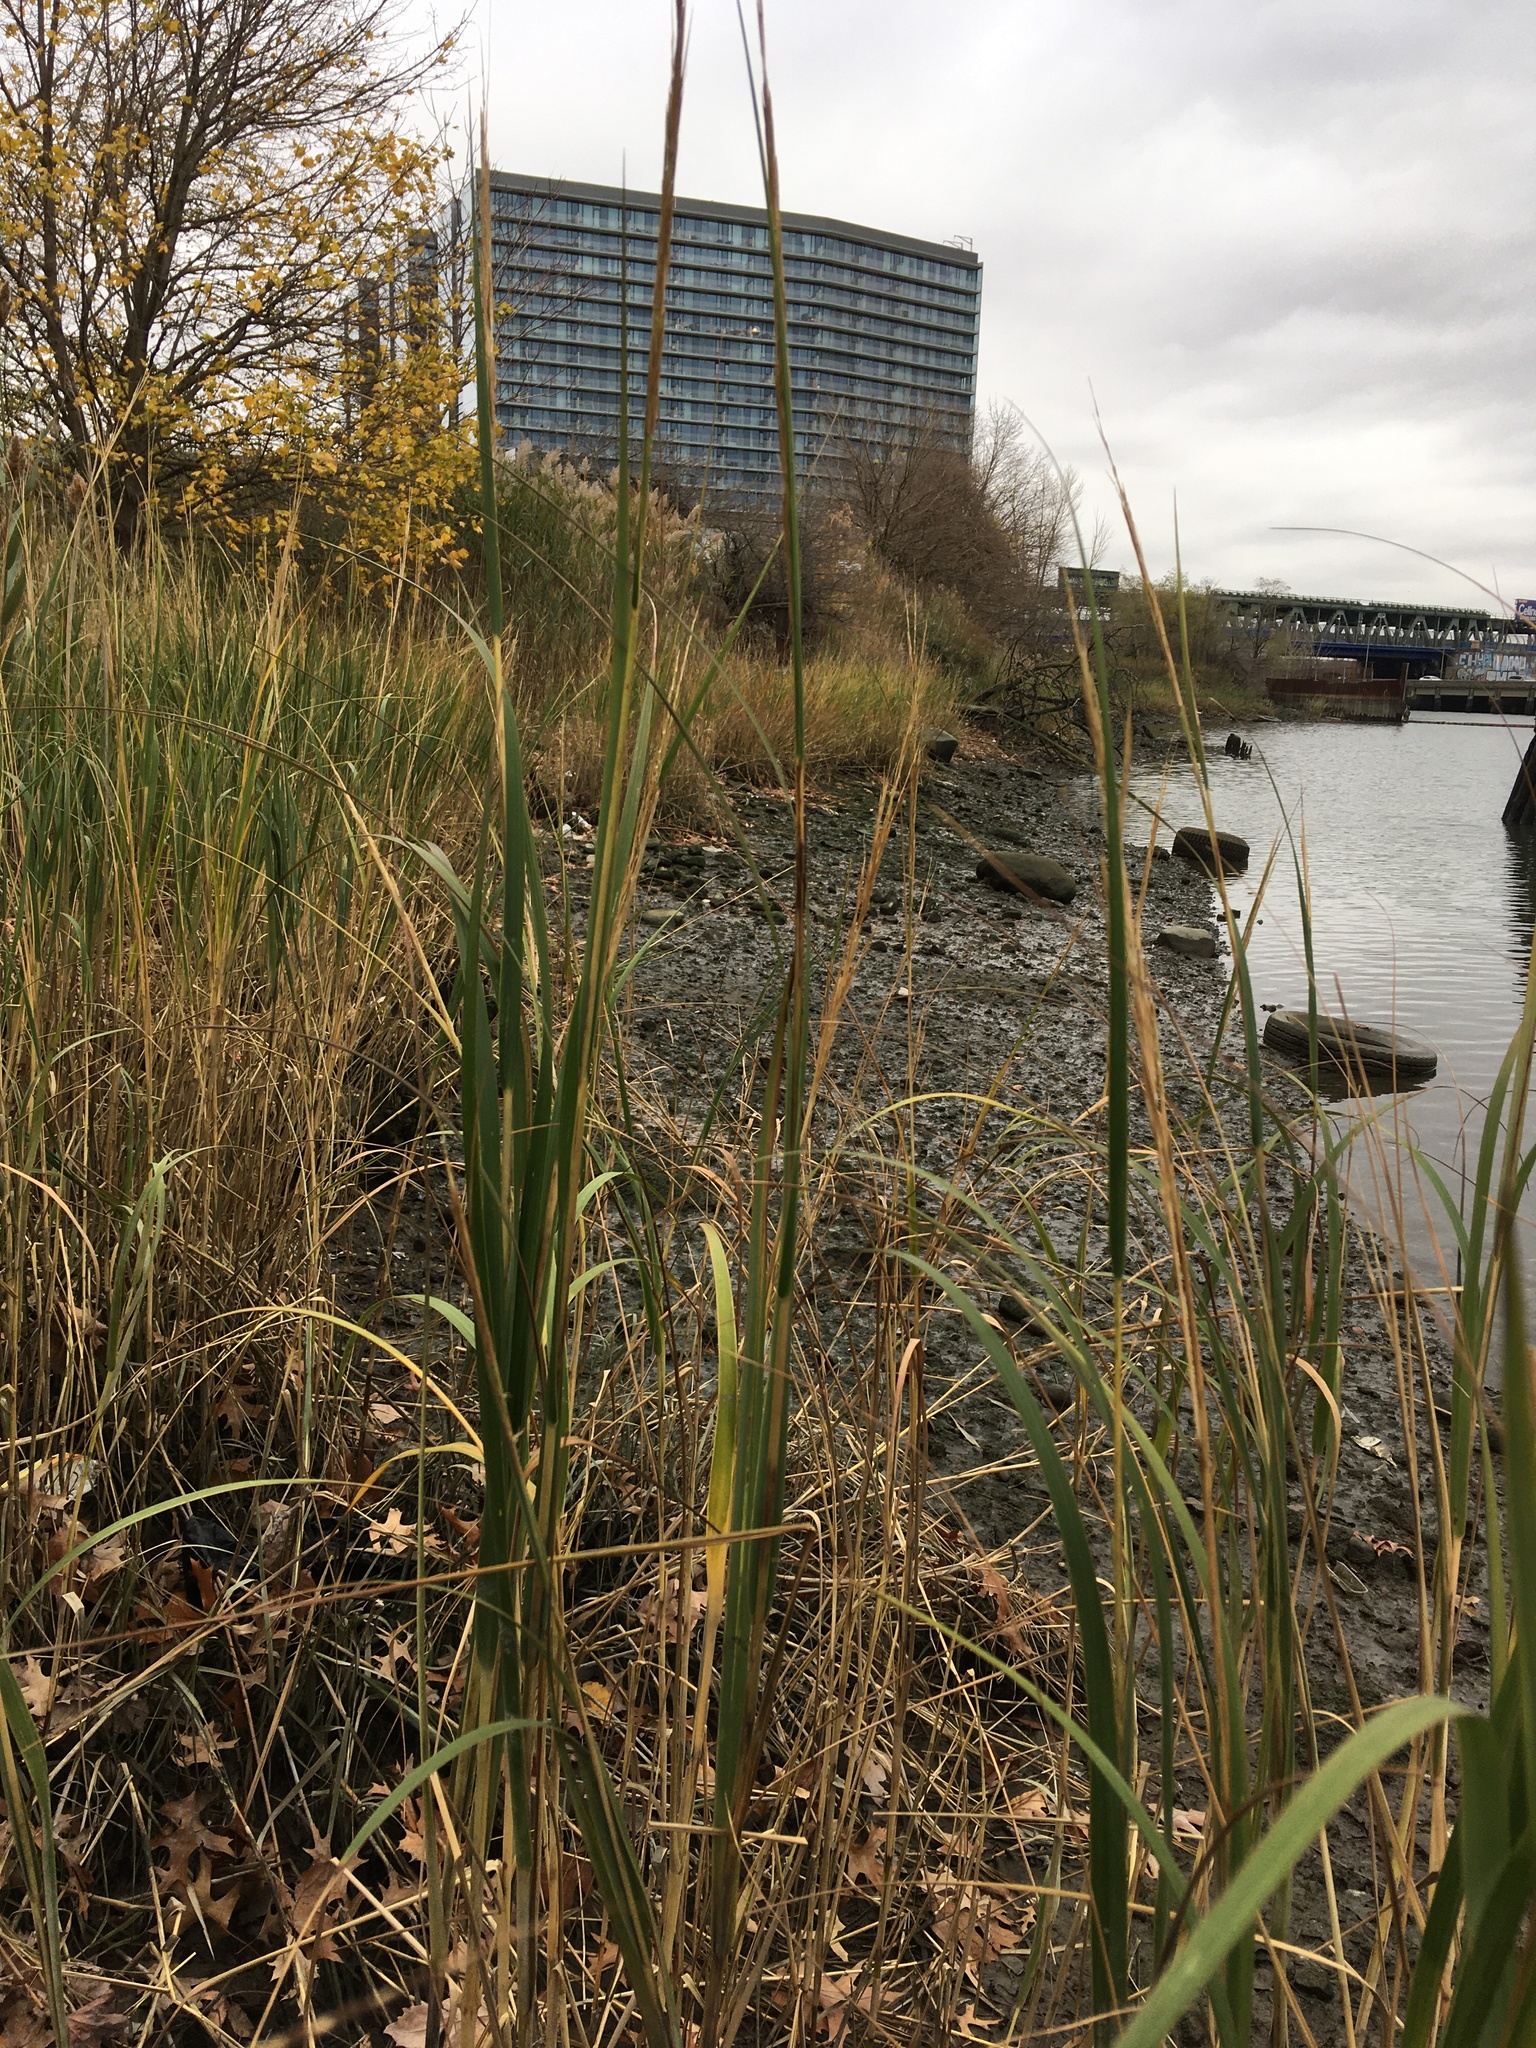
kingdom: Plantae
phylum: Tracheophyta
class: Liliopsida
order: Poales
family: Poaceae
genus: Sporobolus
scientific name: Sporobolus alterniflorus
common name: Atlantic cordgrass
